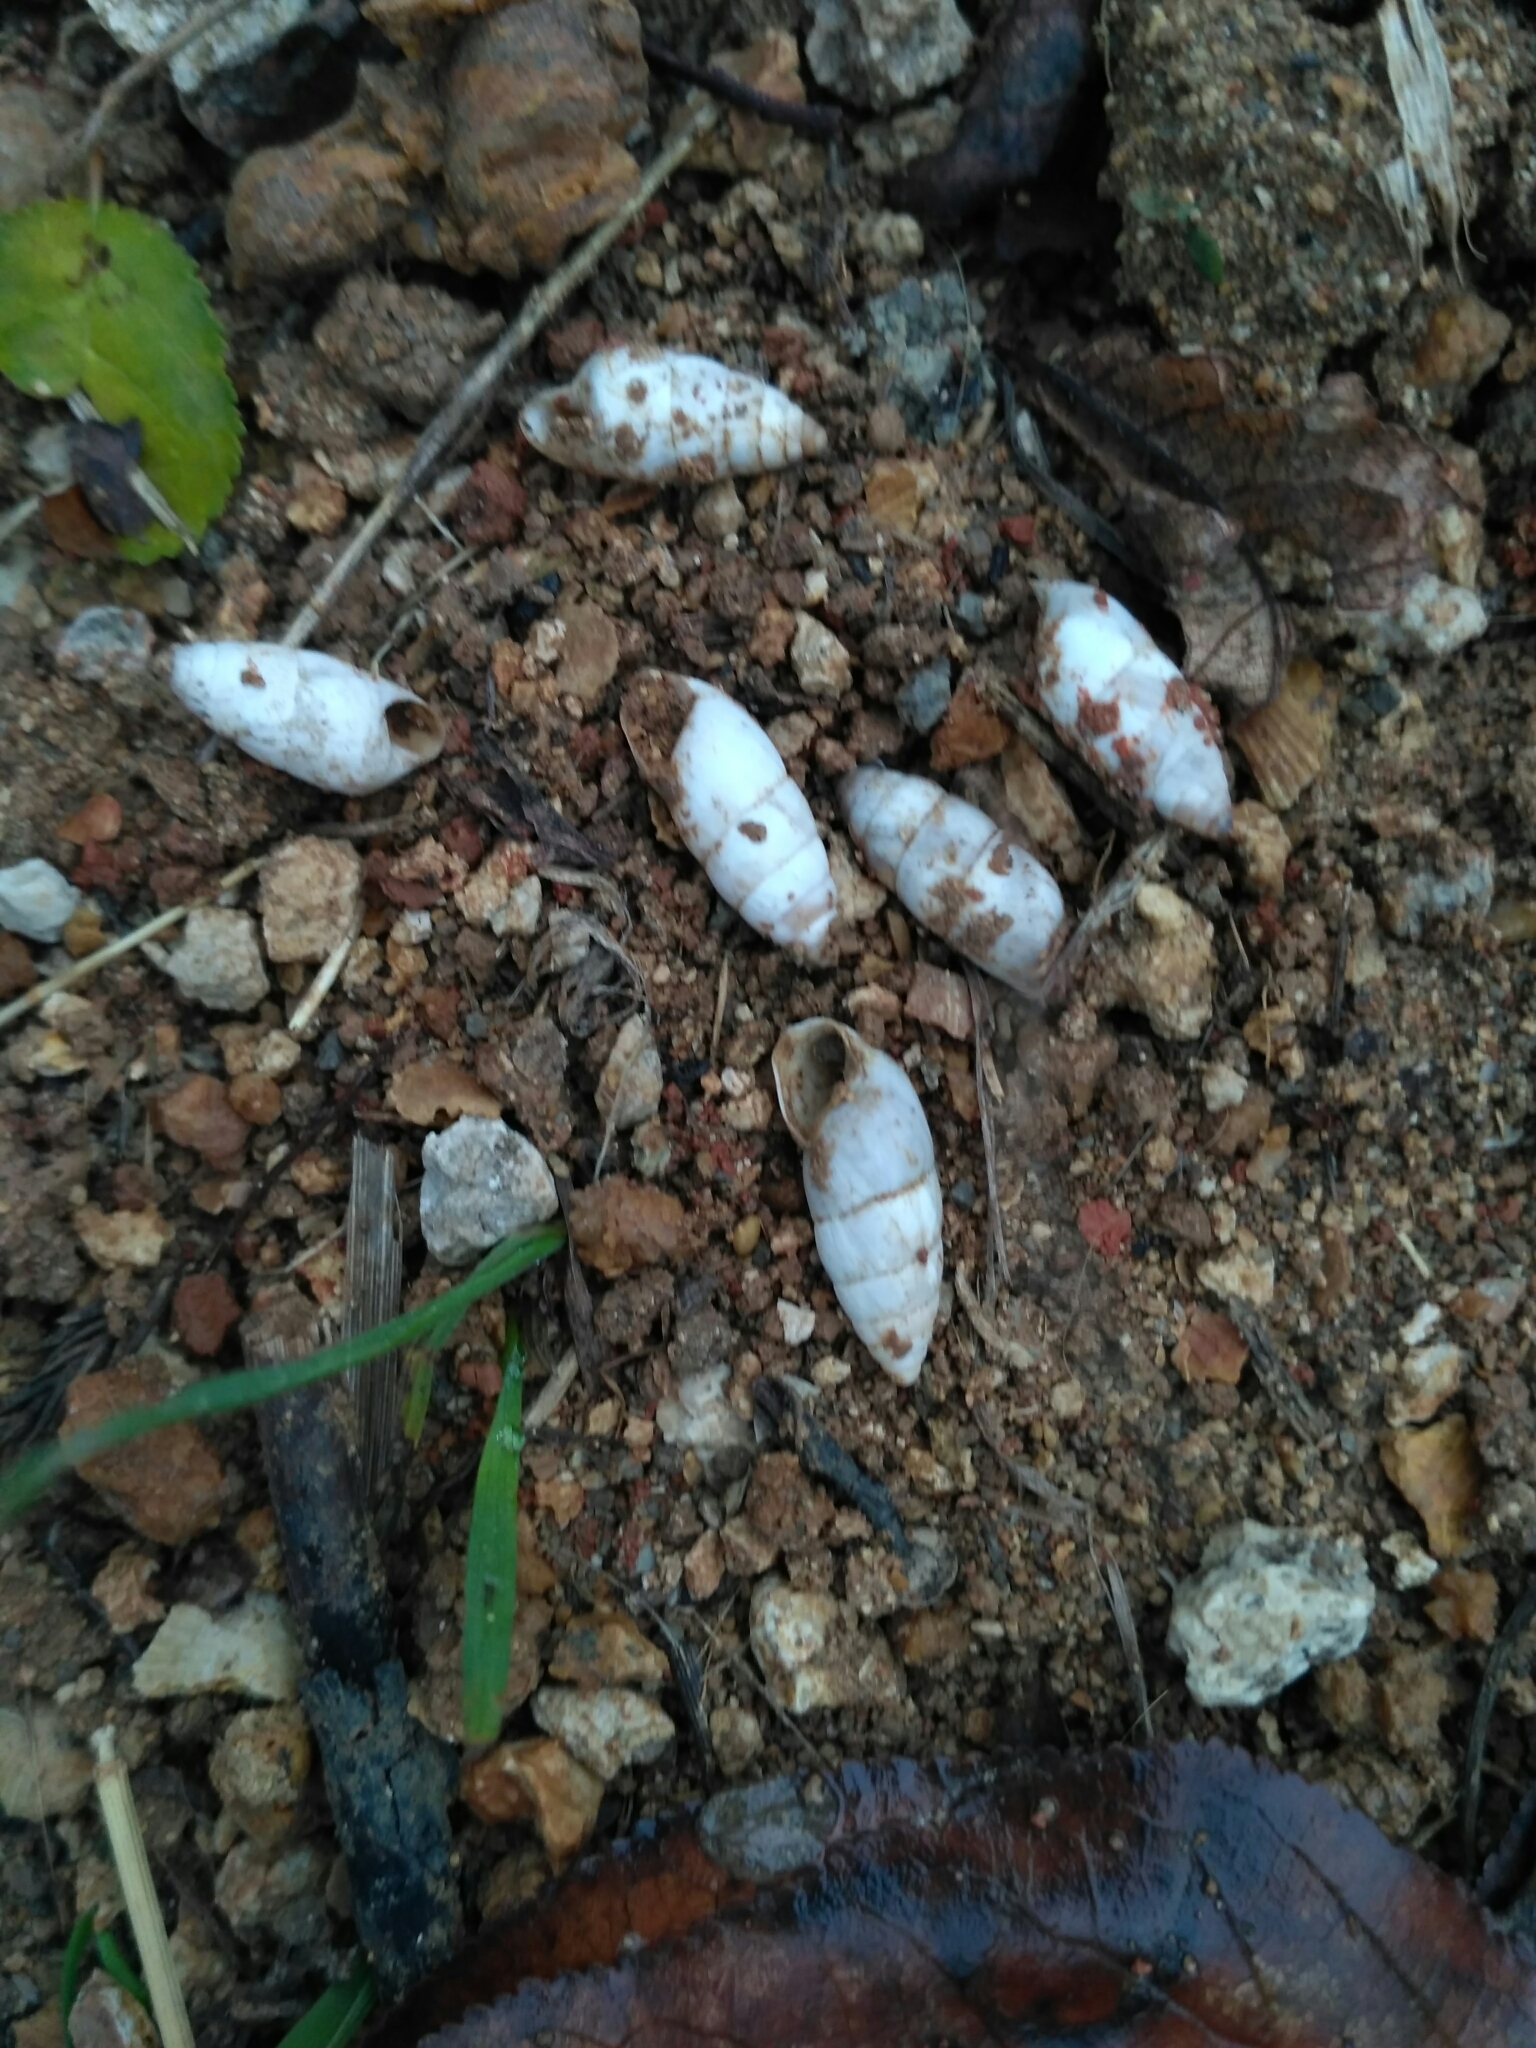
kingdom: Animalia
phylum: Mollusca
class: Gastropoda
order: Stylommatophora
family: Enidae
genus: Brephulopsis
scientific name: Brephulopsis cylindrica
